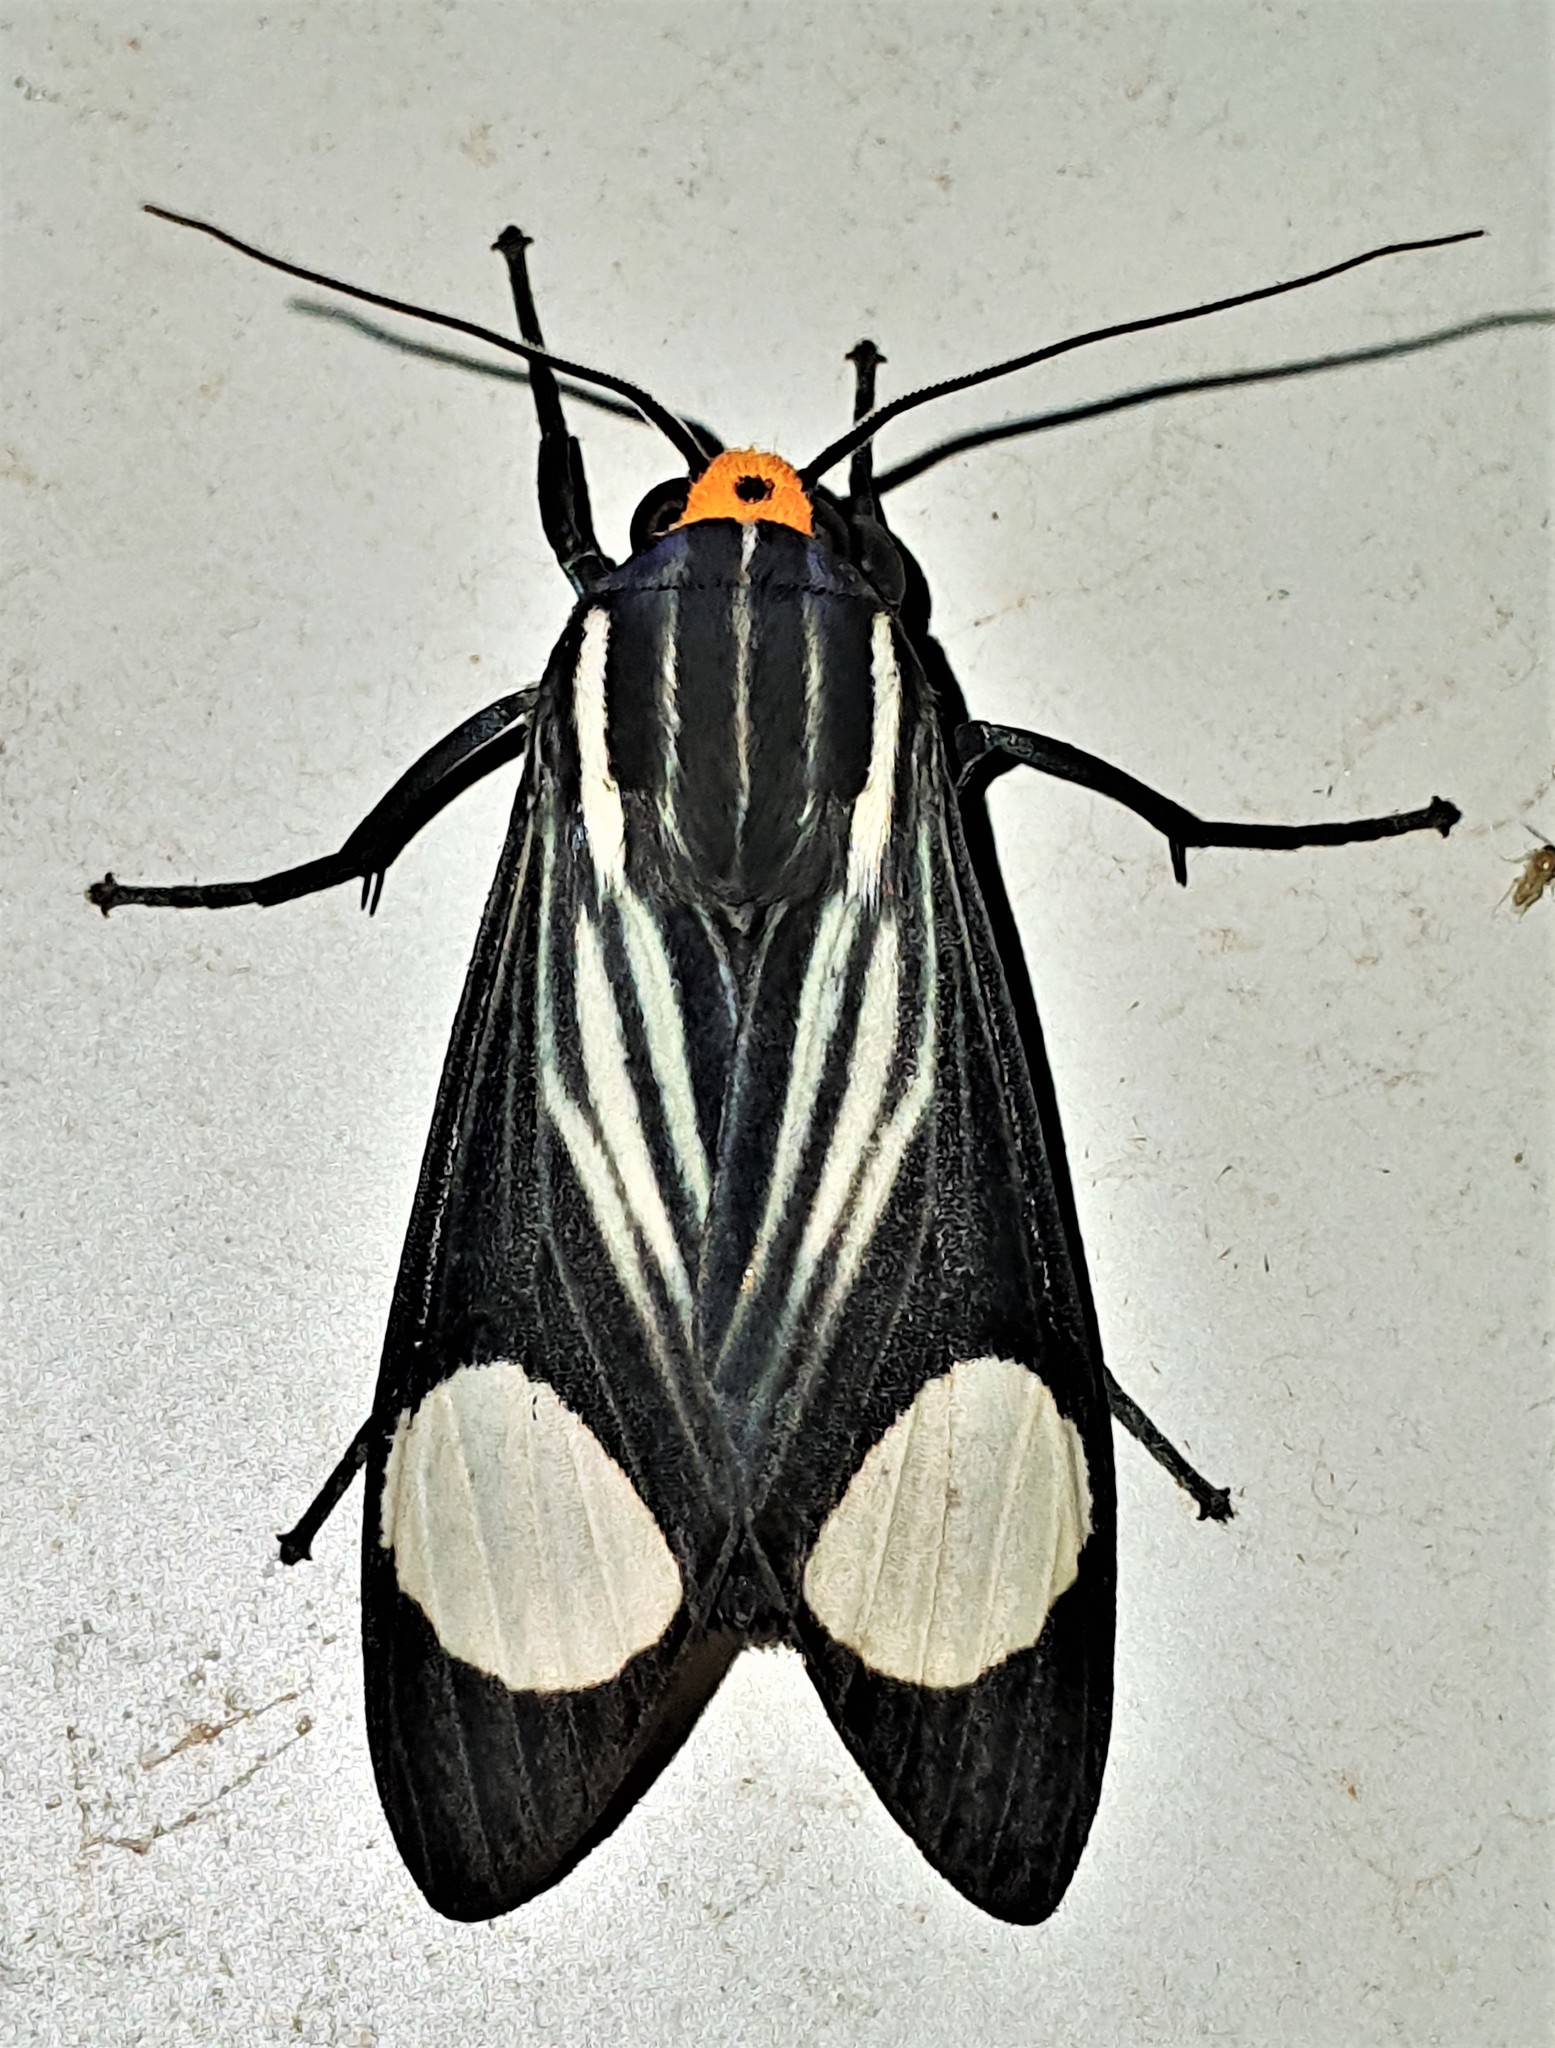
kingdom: Animalia
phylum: Arthropoda
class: Insecta
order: Lepidoptera
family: Erebidae
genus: Rhipha
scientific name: Rhipha leucoplaga
